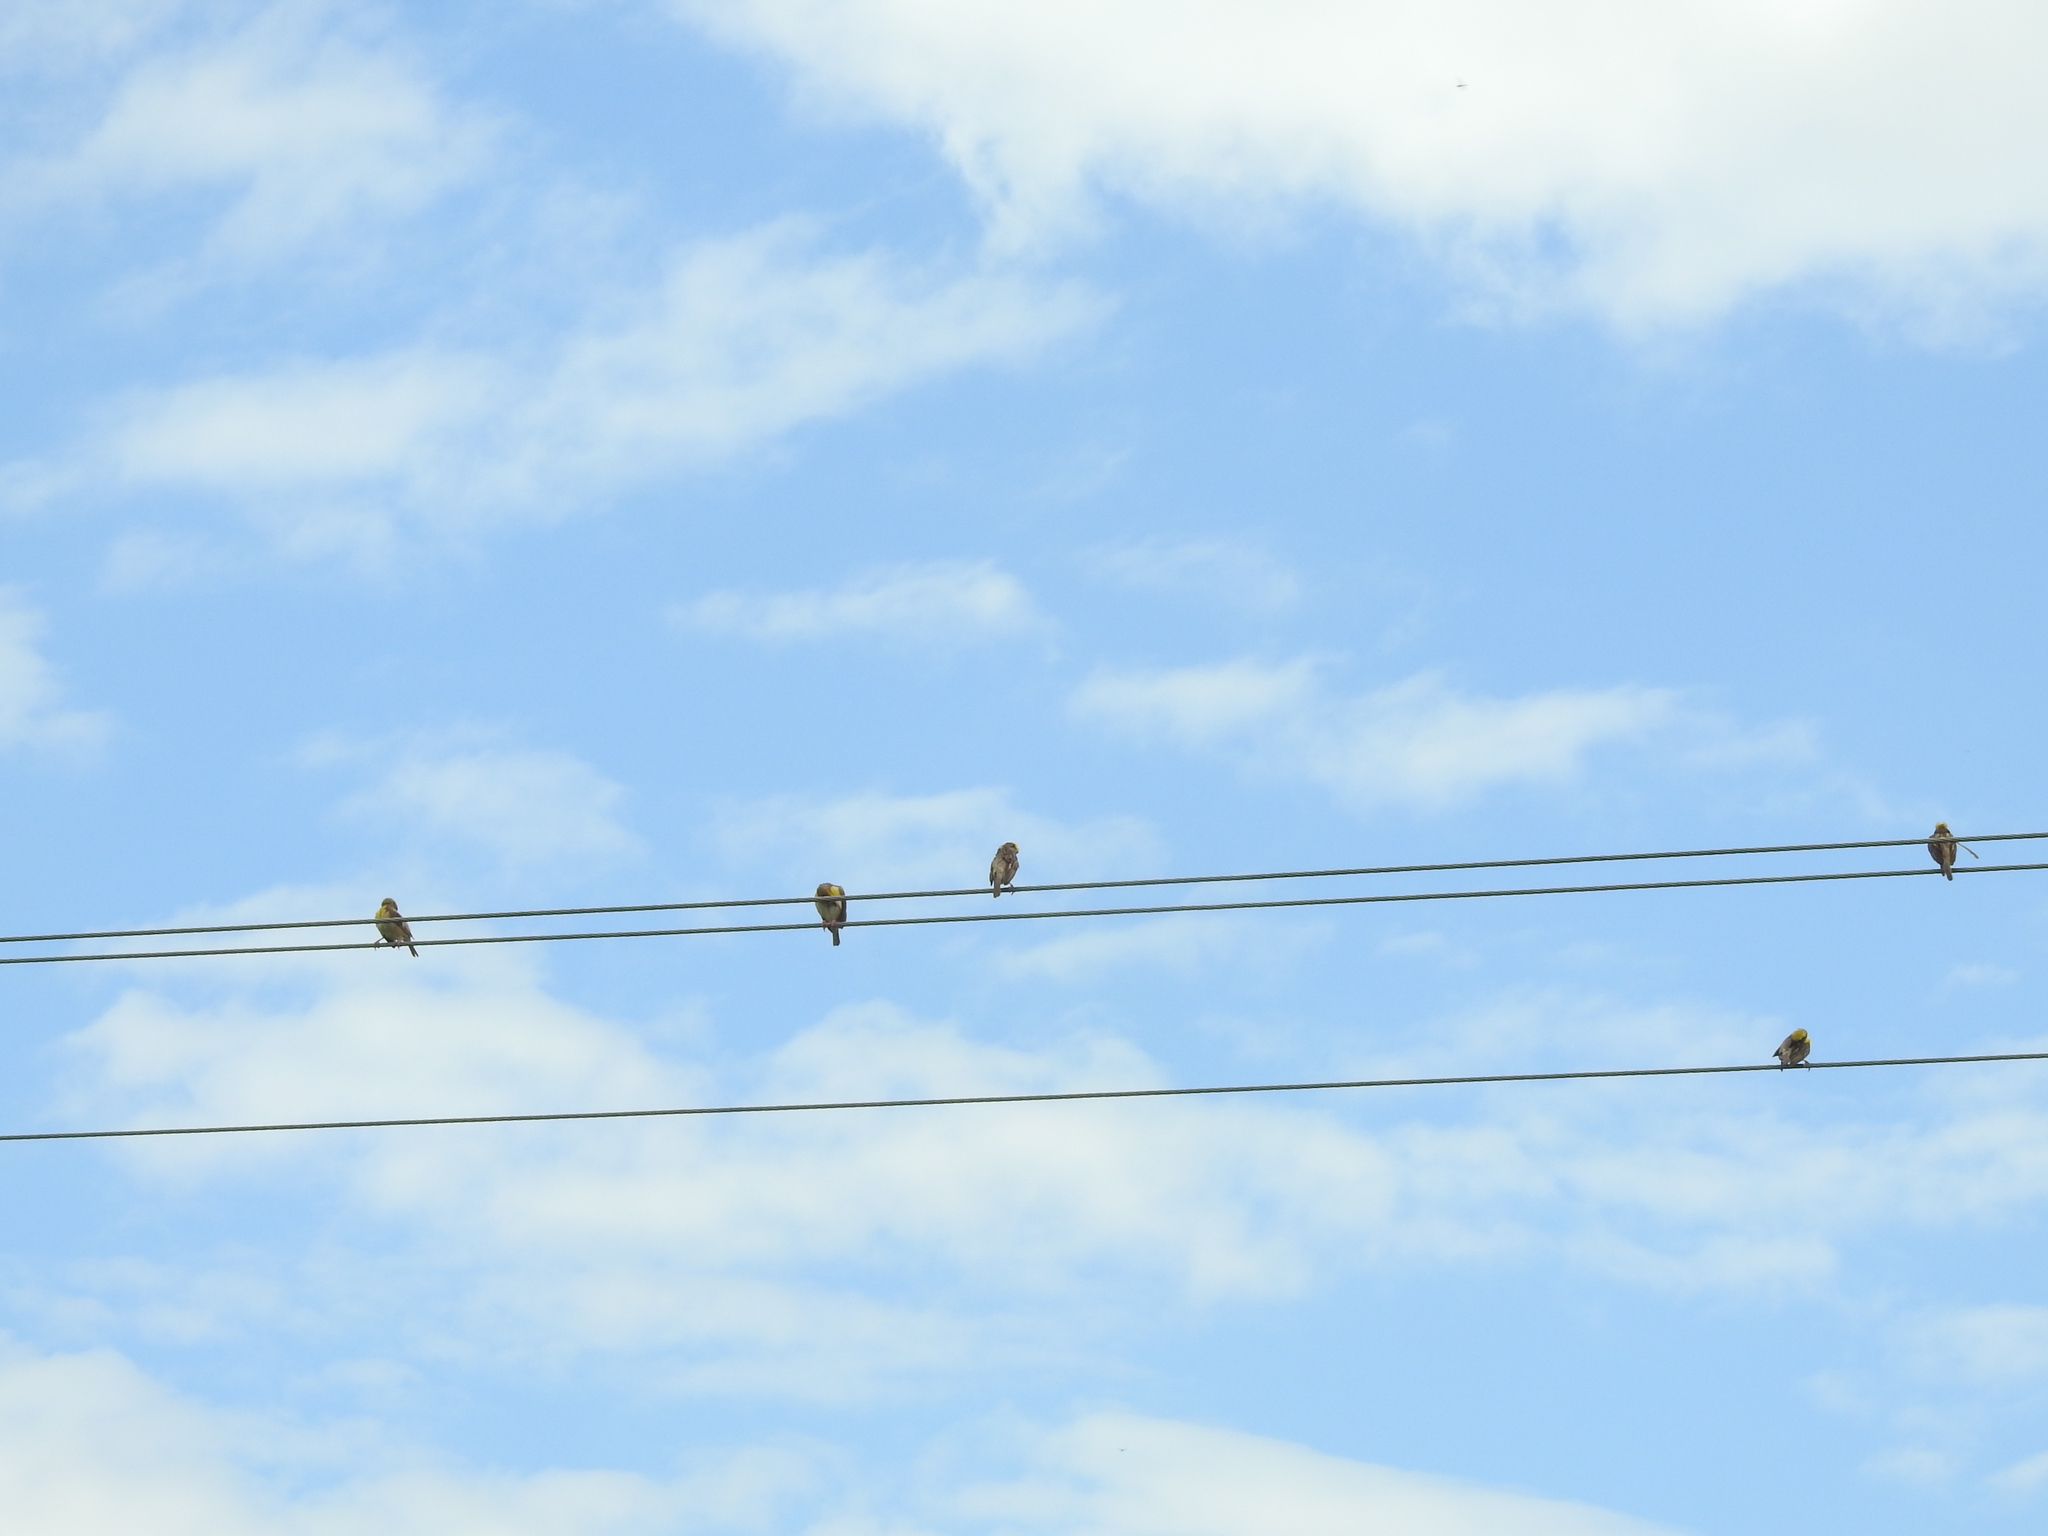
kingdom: Animalia
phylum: Chordata
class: Aves
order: Passeriformes
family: Ploceidae
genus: Ploceus
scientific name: Ploceus philippinus
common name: Baya weaver
